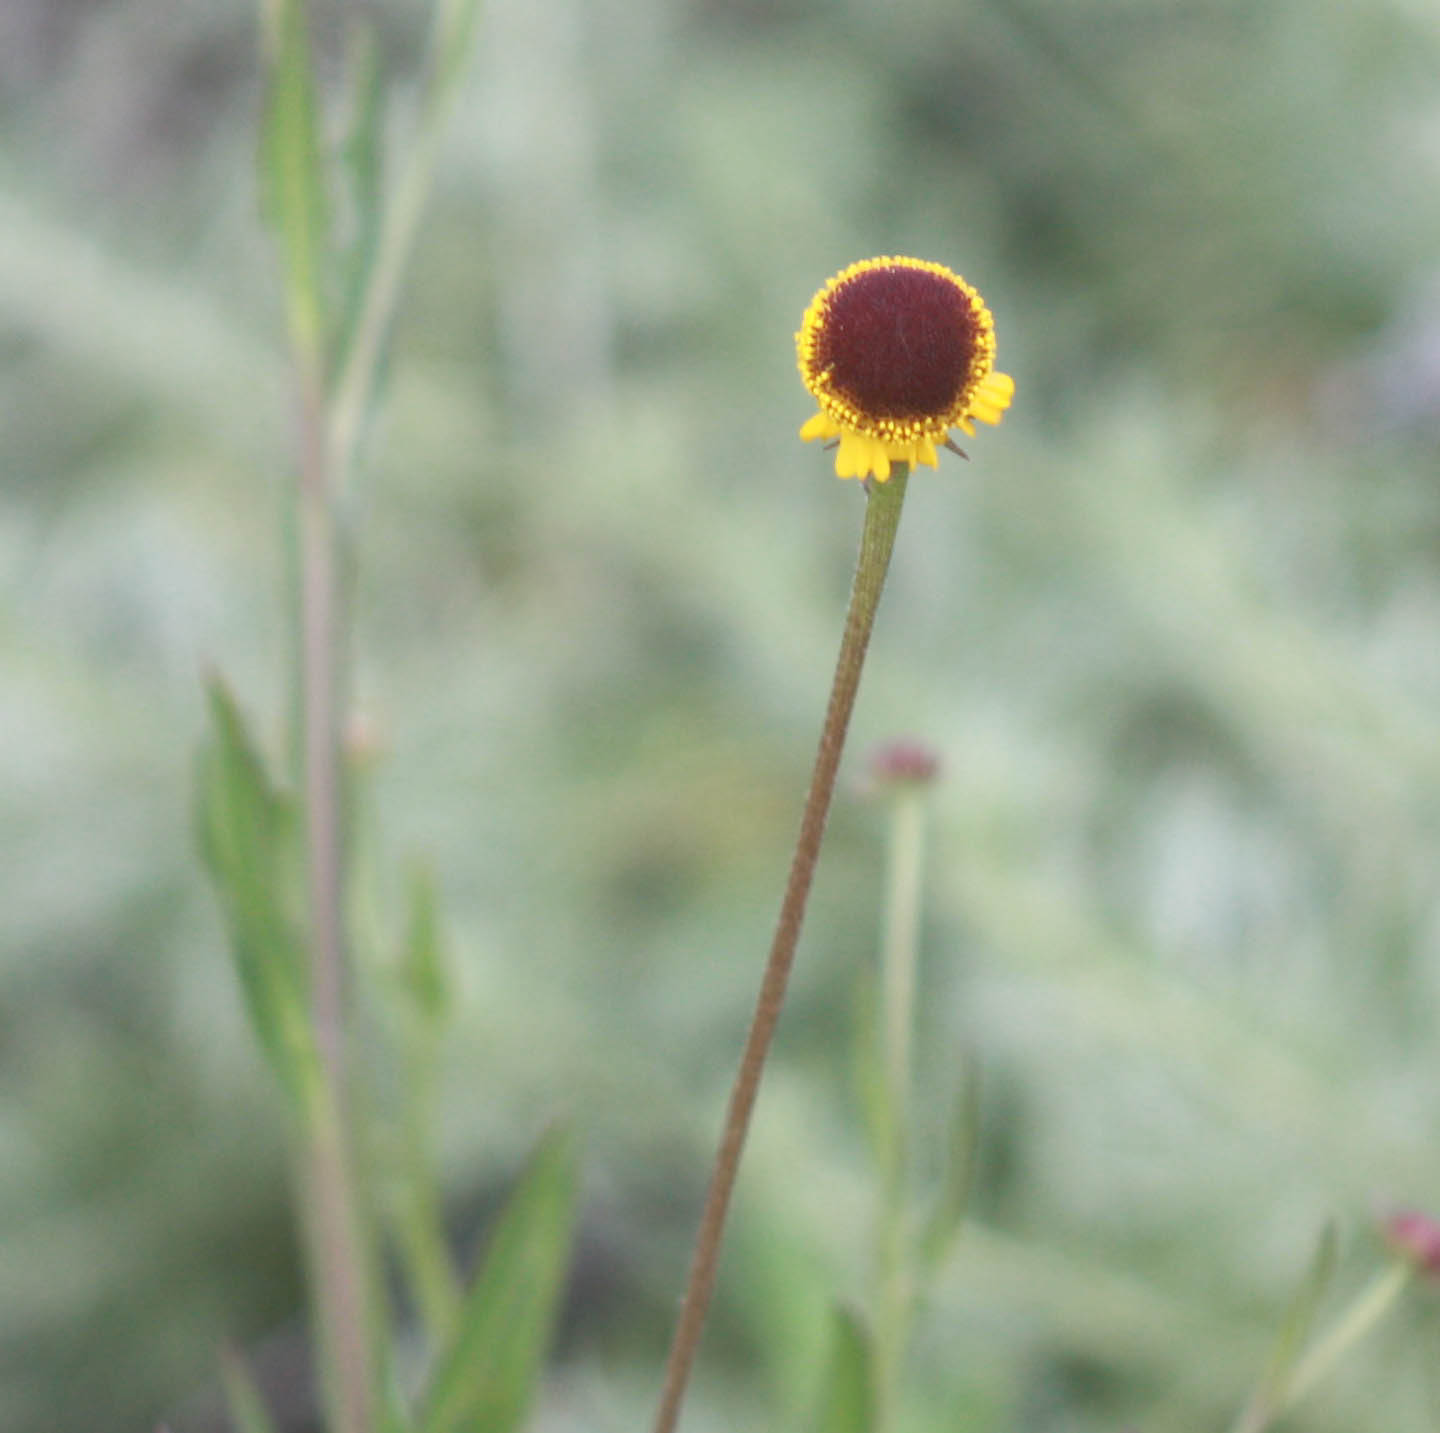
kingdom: Plantae
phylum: Tracheophyta
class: Magnoliopsida
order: Asterales
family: Asteraceae
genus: Helenium
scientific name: Helenium puberulum
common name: Sneezewort
